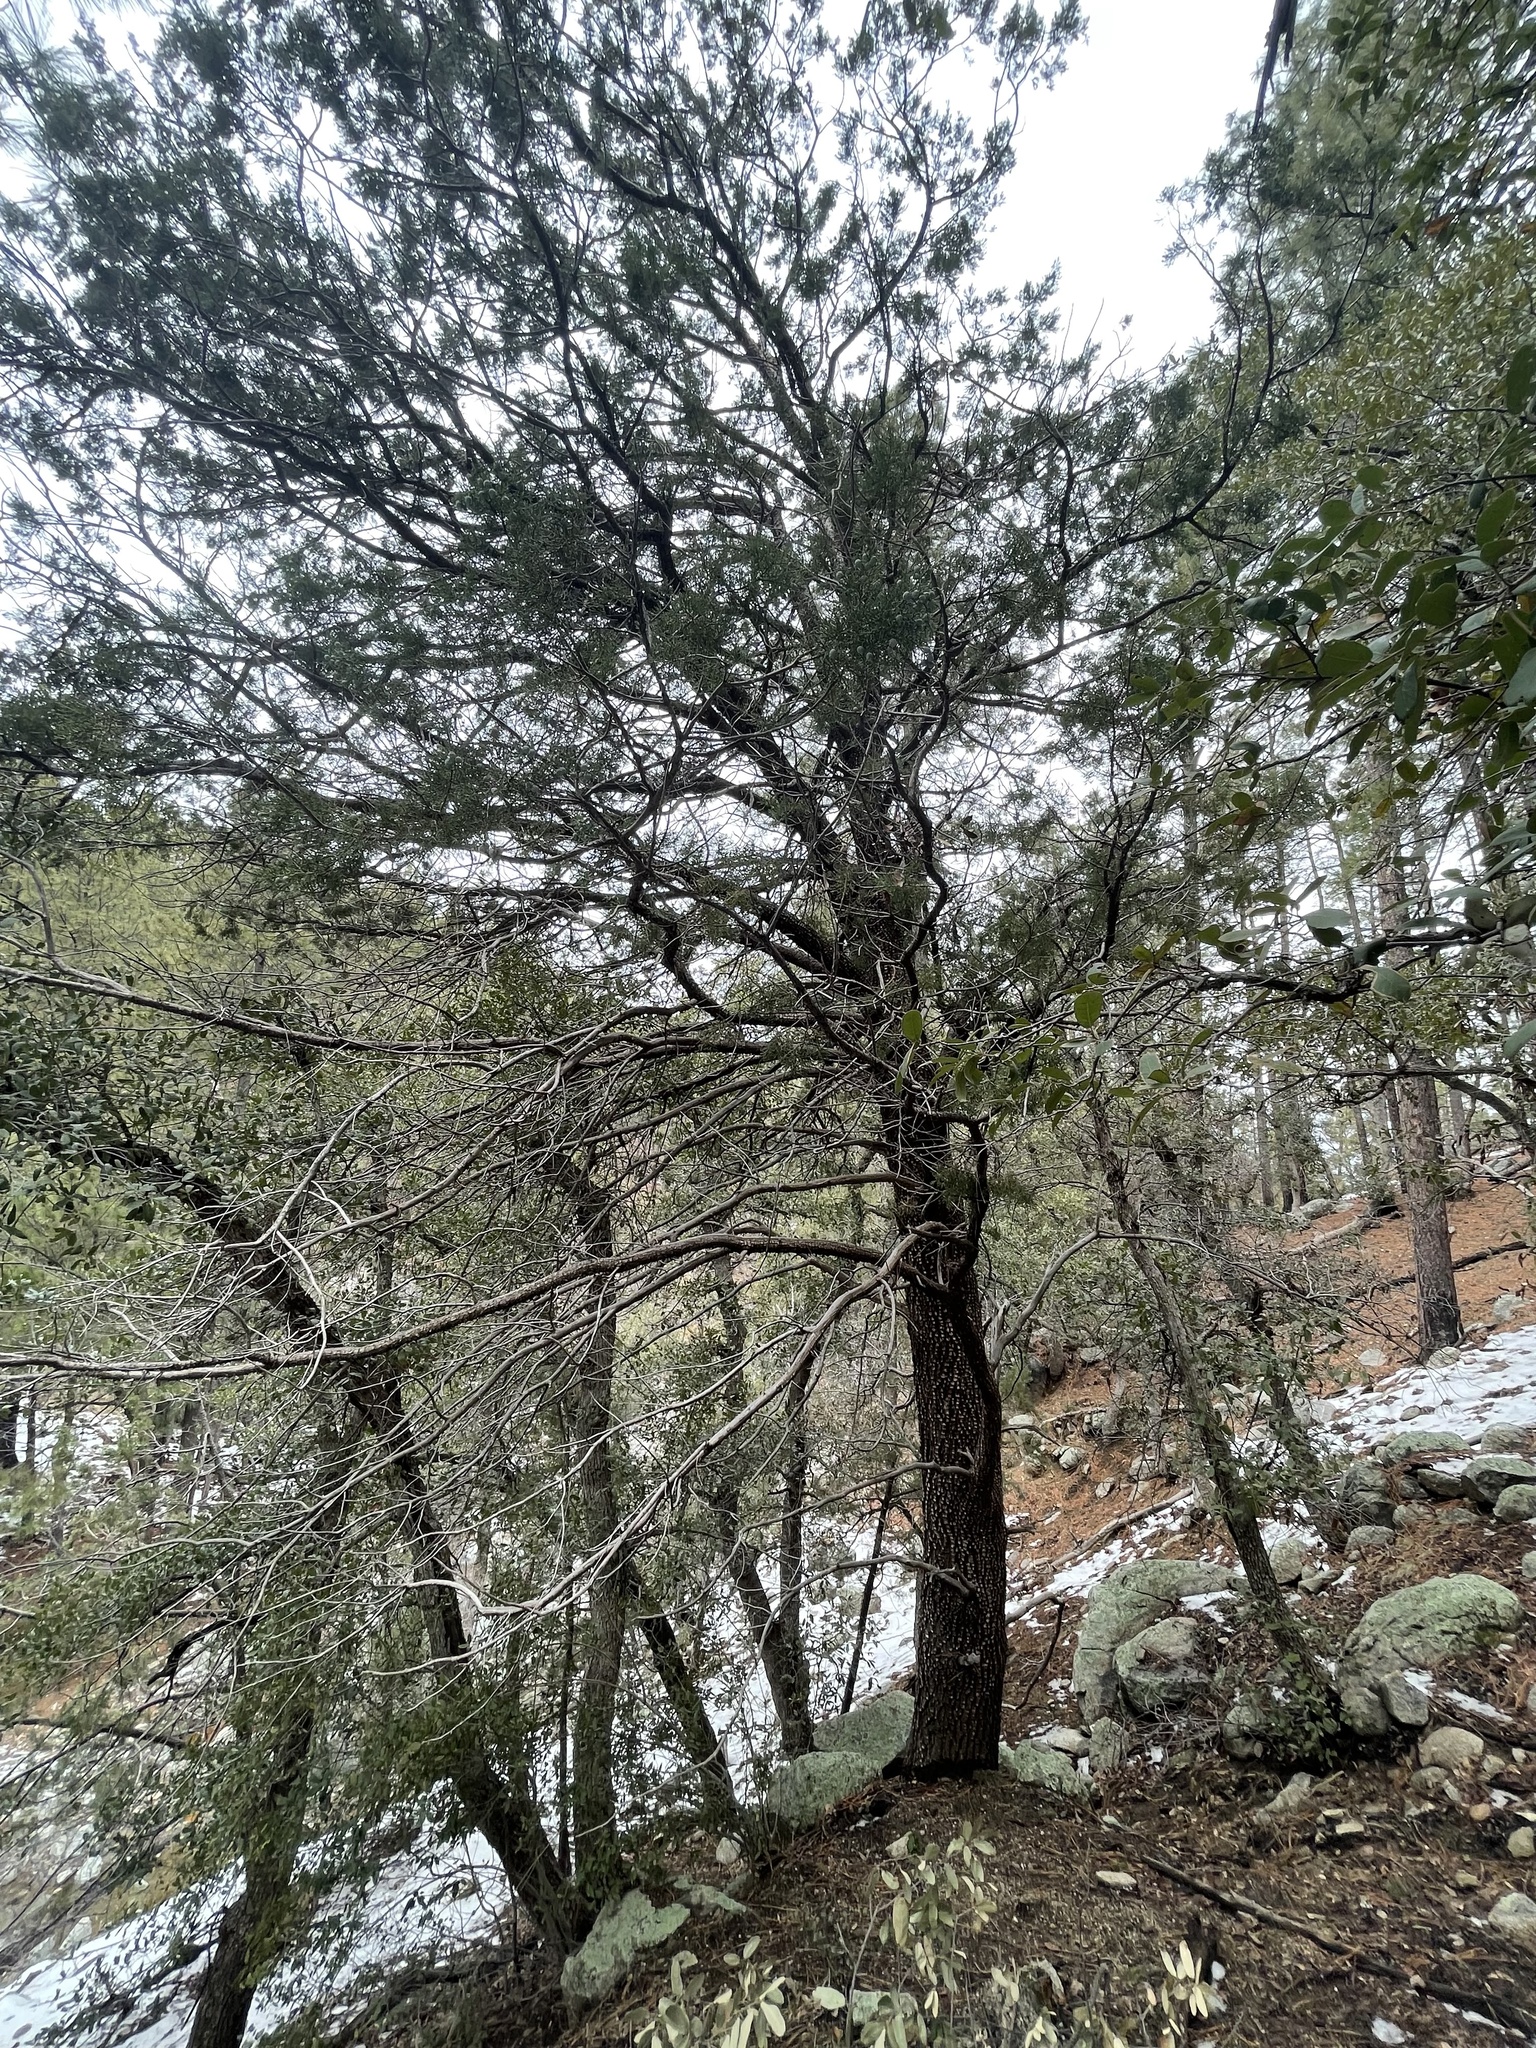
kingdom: Plantae
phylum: Tracheophyta
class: Pinopsida
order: Pinales
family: Cupressaceae
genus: Juniperus
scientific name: Juniperus deppeana
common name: Alligator juniper
